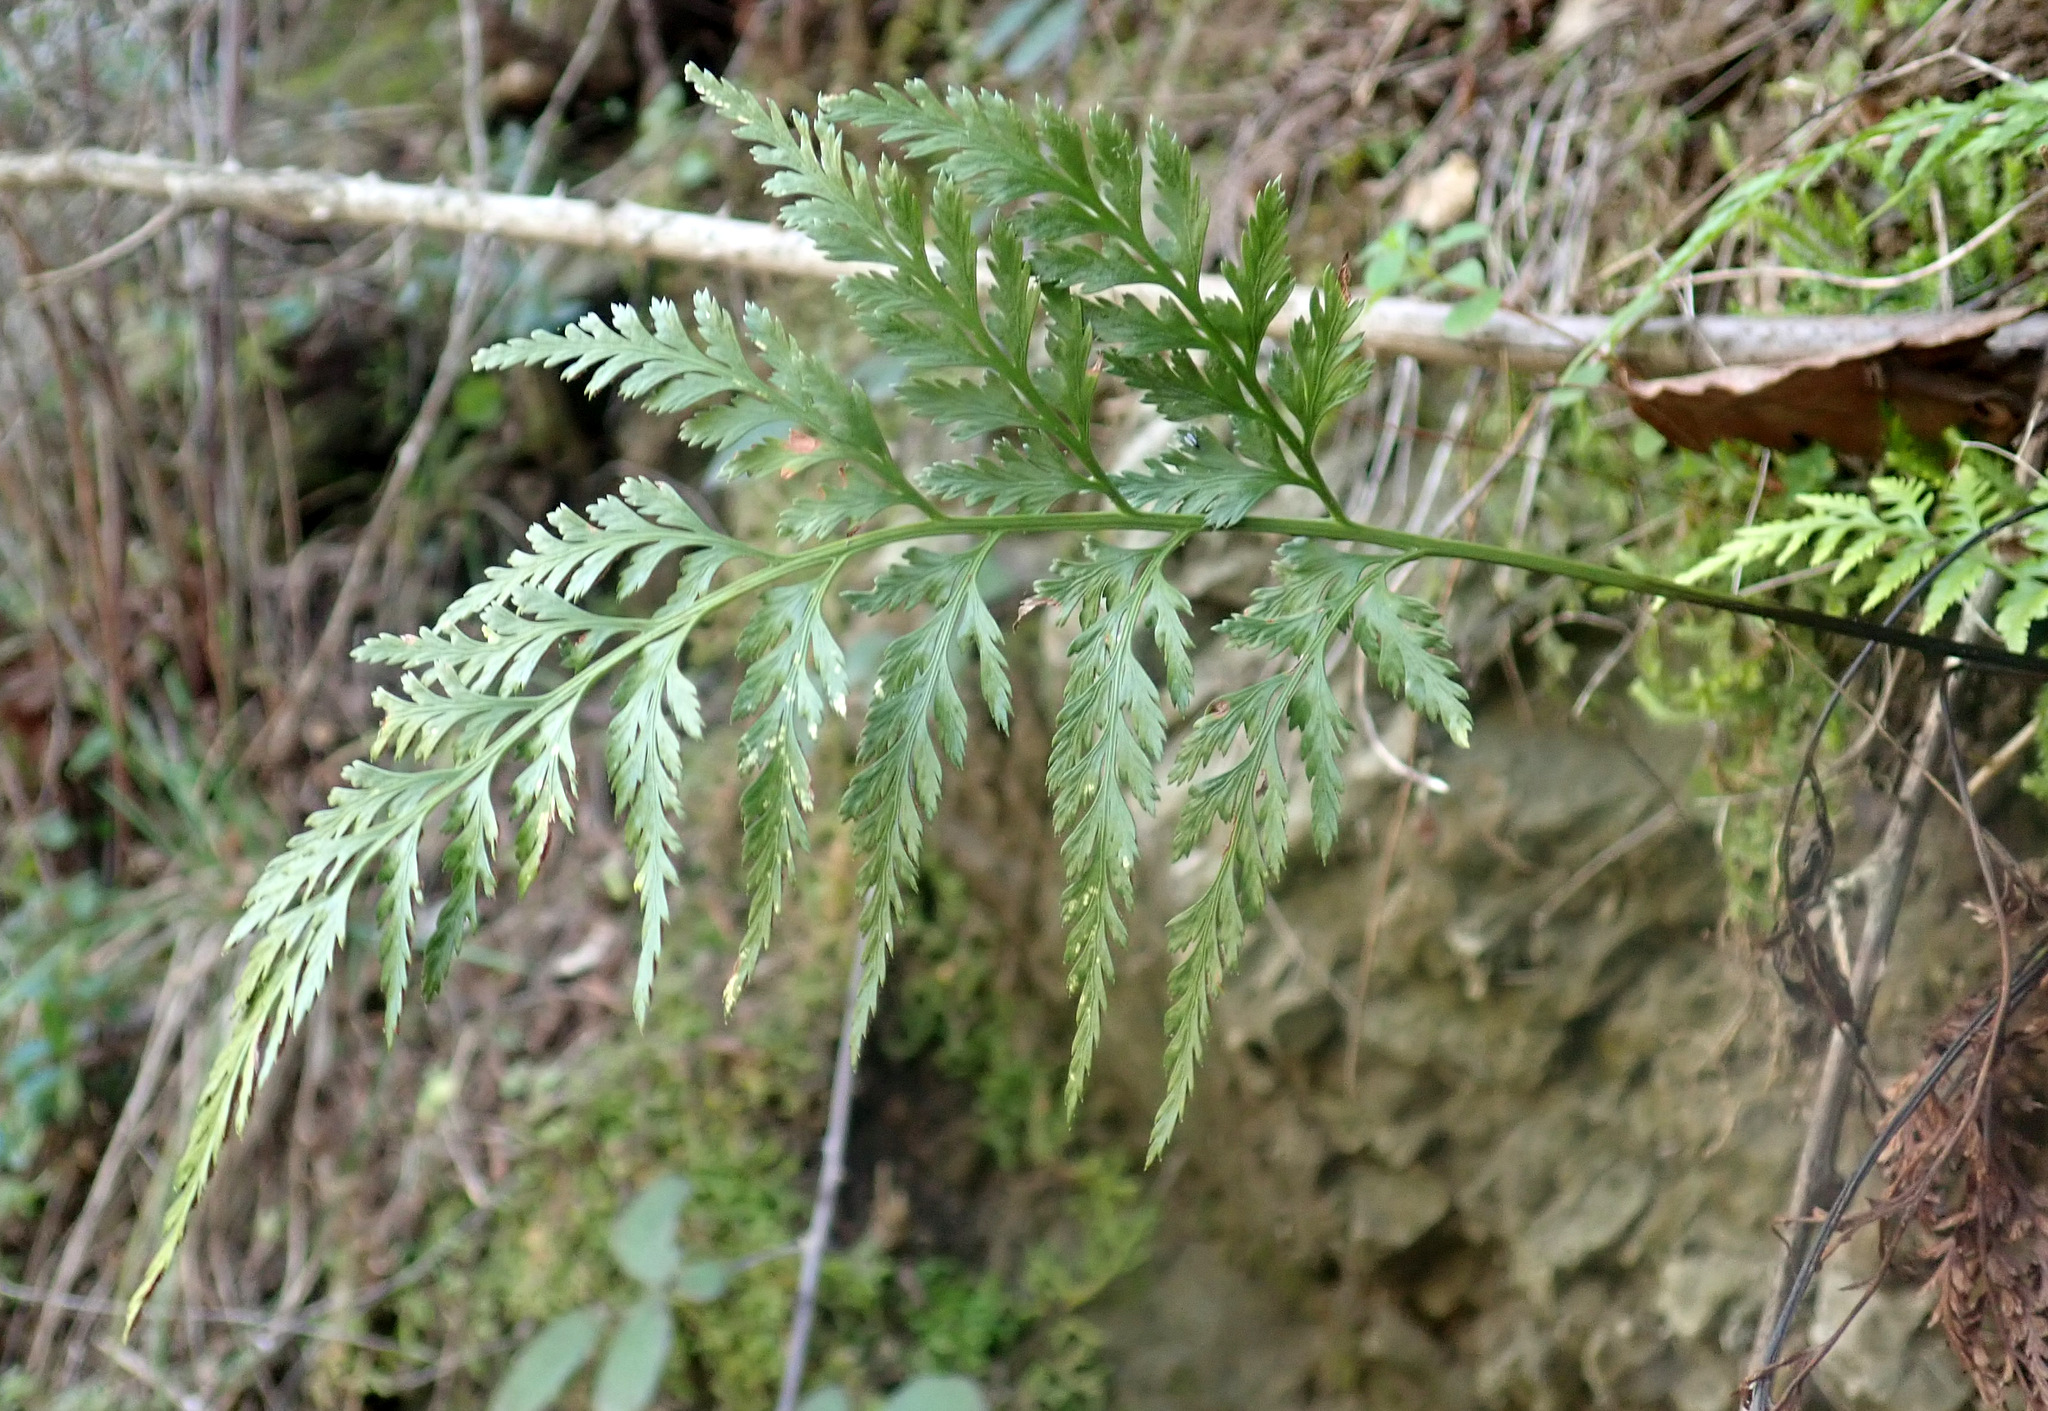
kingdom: Plantae
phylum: Tracheophyta
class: Polypodiopsida
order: Polypodiales
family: Aspleniaceae
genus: Asplenium
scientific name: Asplenium onopteris
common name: Irish spleenwort
